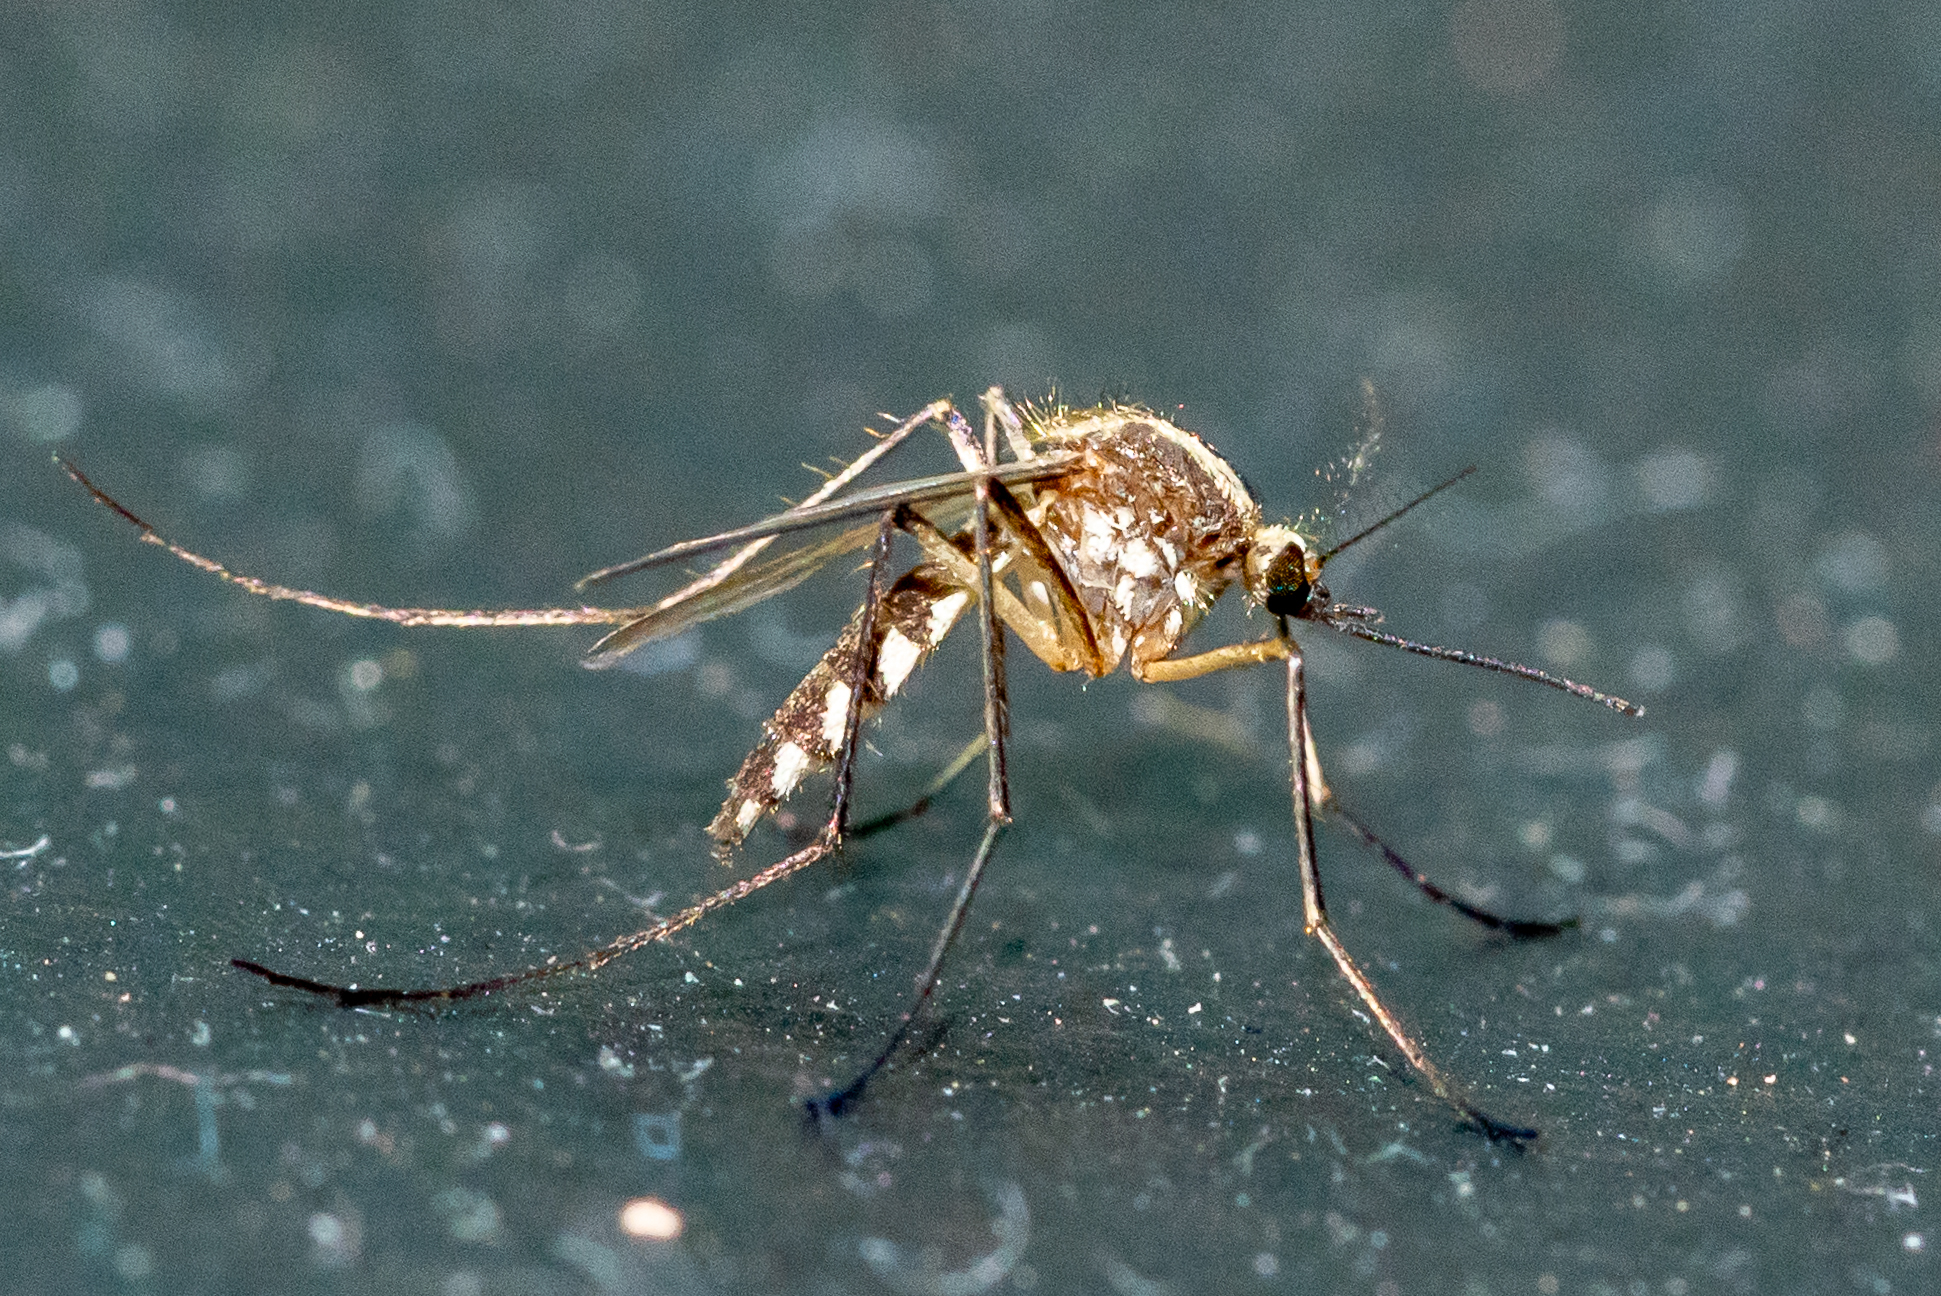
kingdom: Animalia
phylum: Arthropoda
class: Insecta
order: Diptera
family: Culicidae
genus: Aedes
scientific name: Aedes trivittatus
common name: Plains floodwater mosquito
